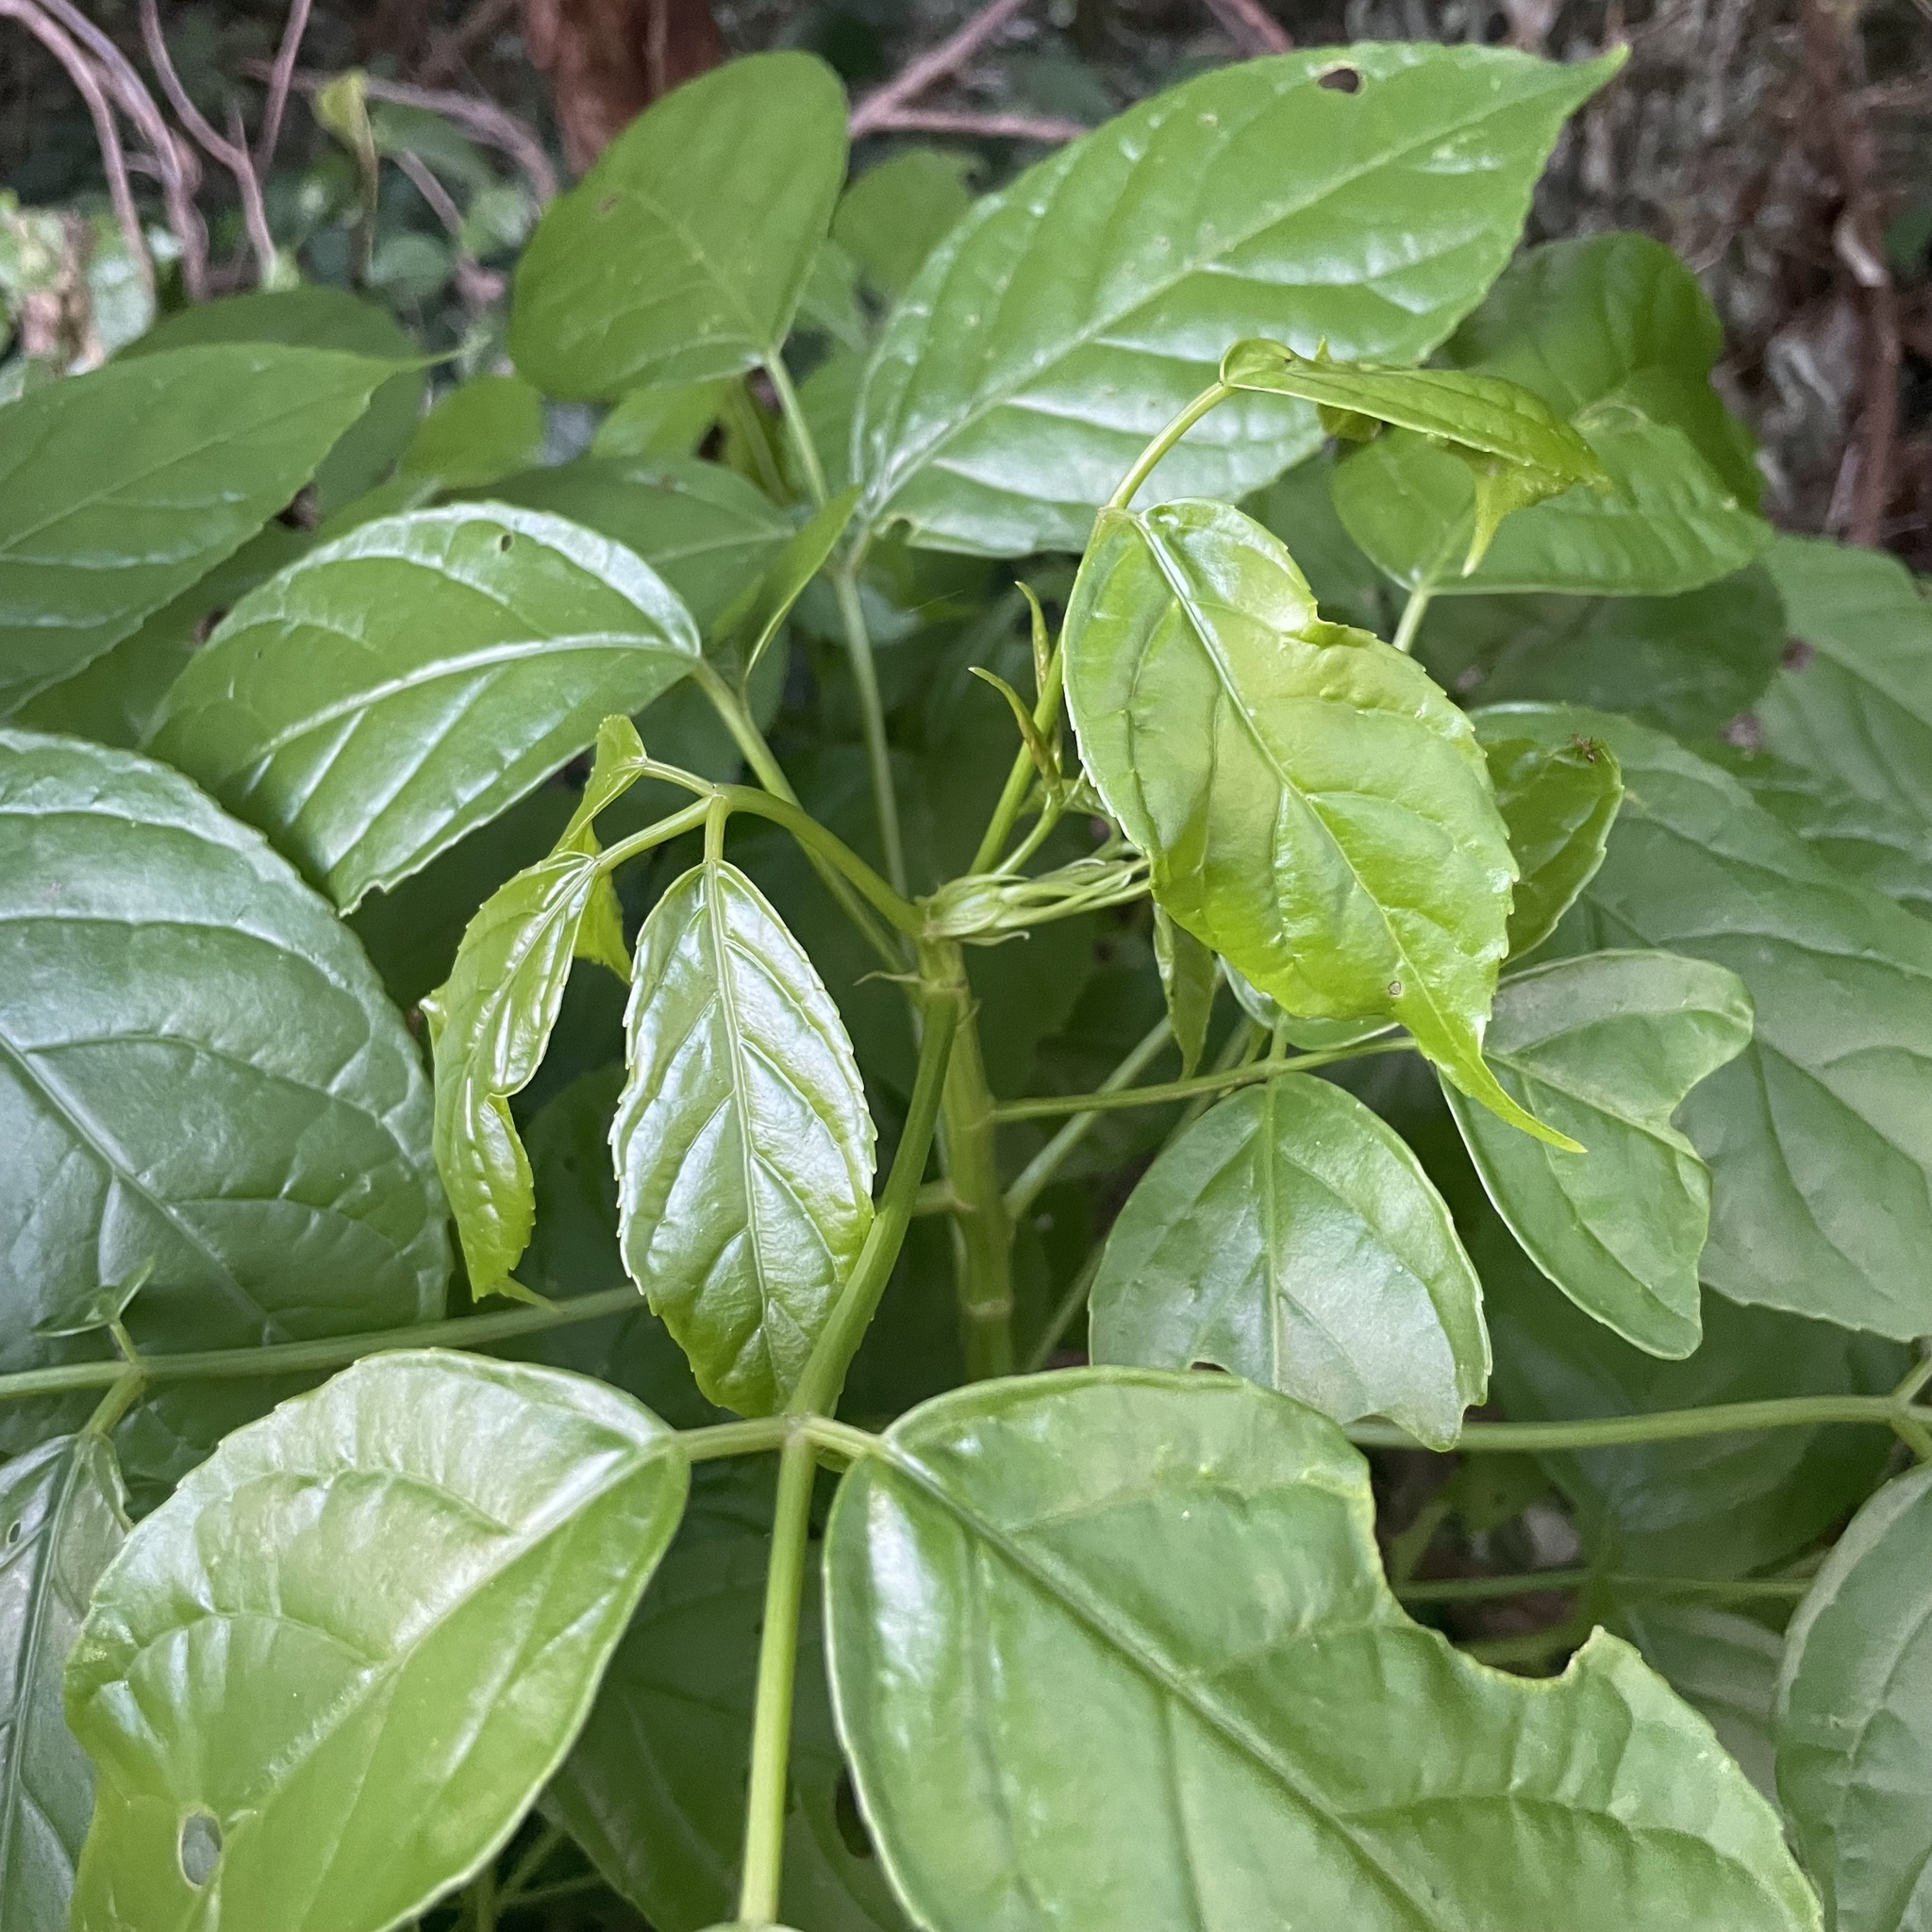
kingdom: Plantae
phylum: Tracheophyta
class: Magnoliopsida
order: Malpighiales
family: Phyllanthaceae
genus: Bischofia
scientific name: Bischofia javanica
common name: Javanese bishopwood
